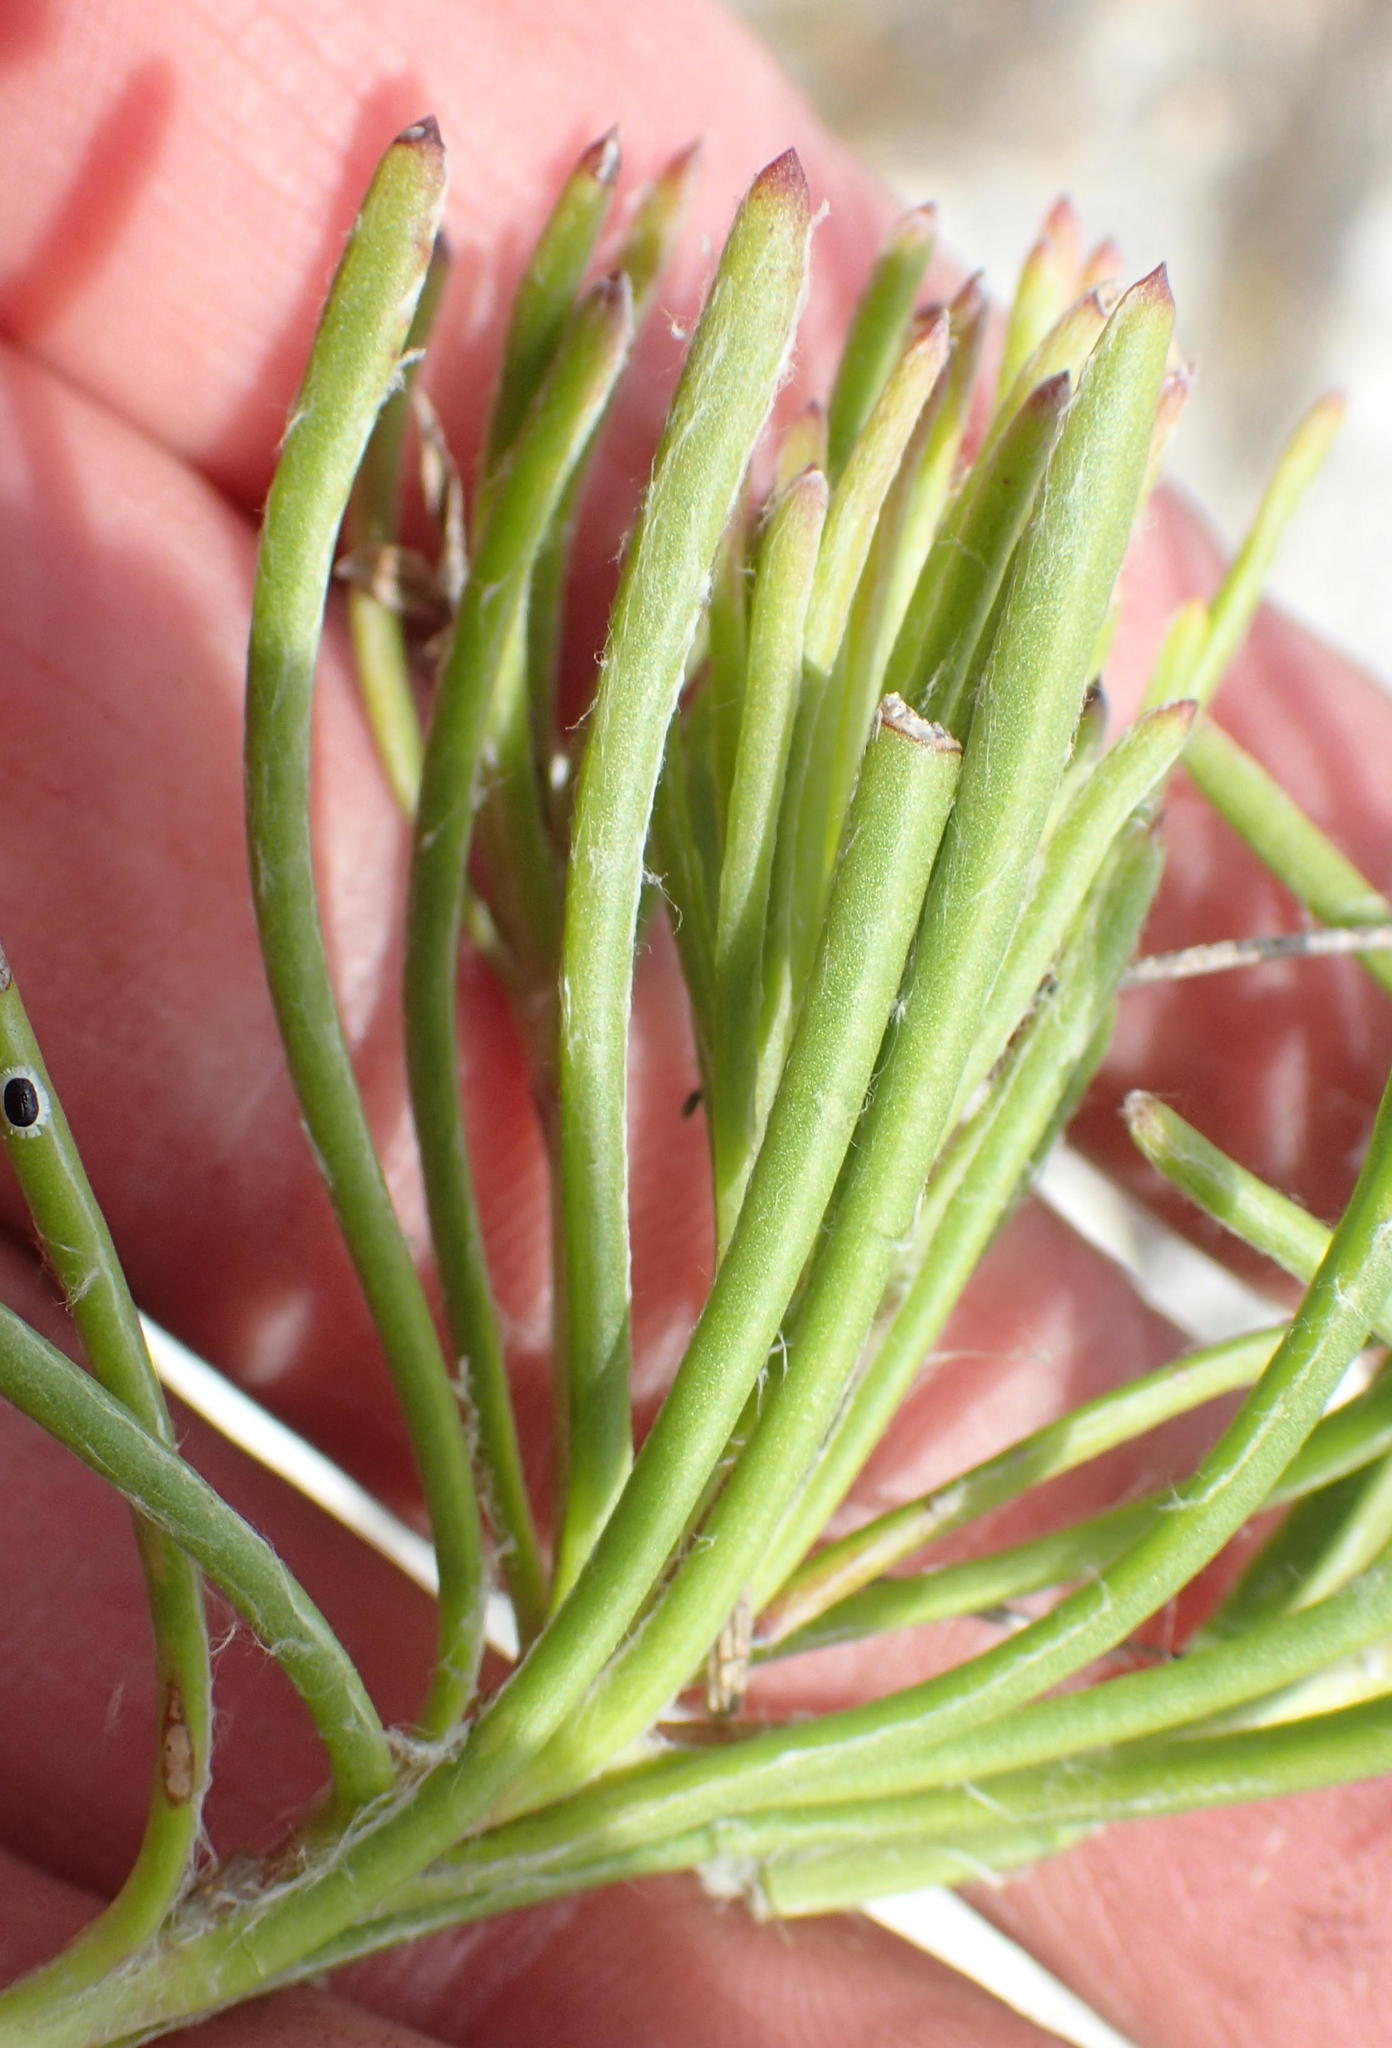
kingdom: Plantae
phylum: Tracheophyta
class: Magnoliopsida
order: Asterales
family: Asteraceae
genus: Osteospermum
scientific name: Osteospermum triquetrum
